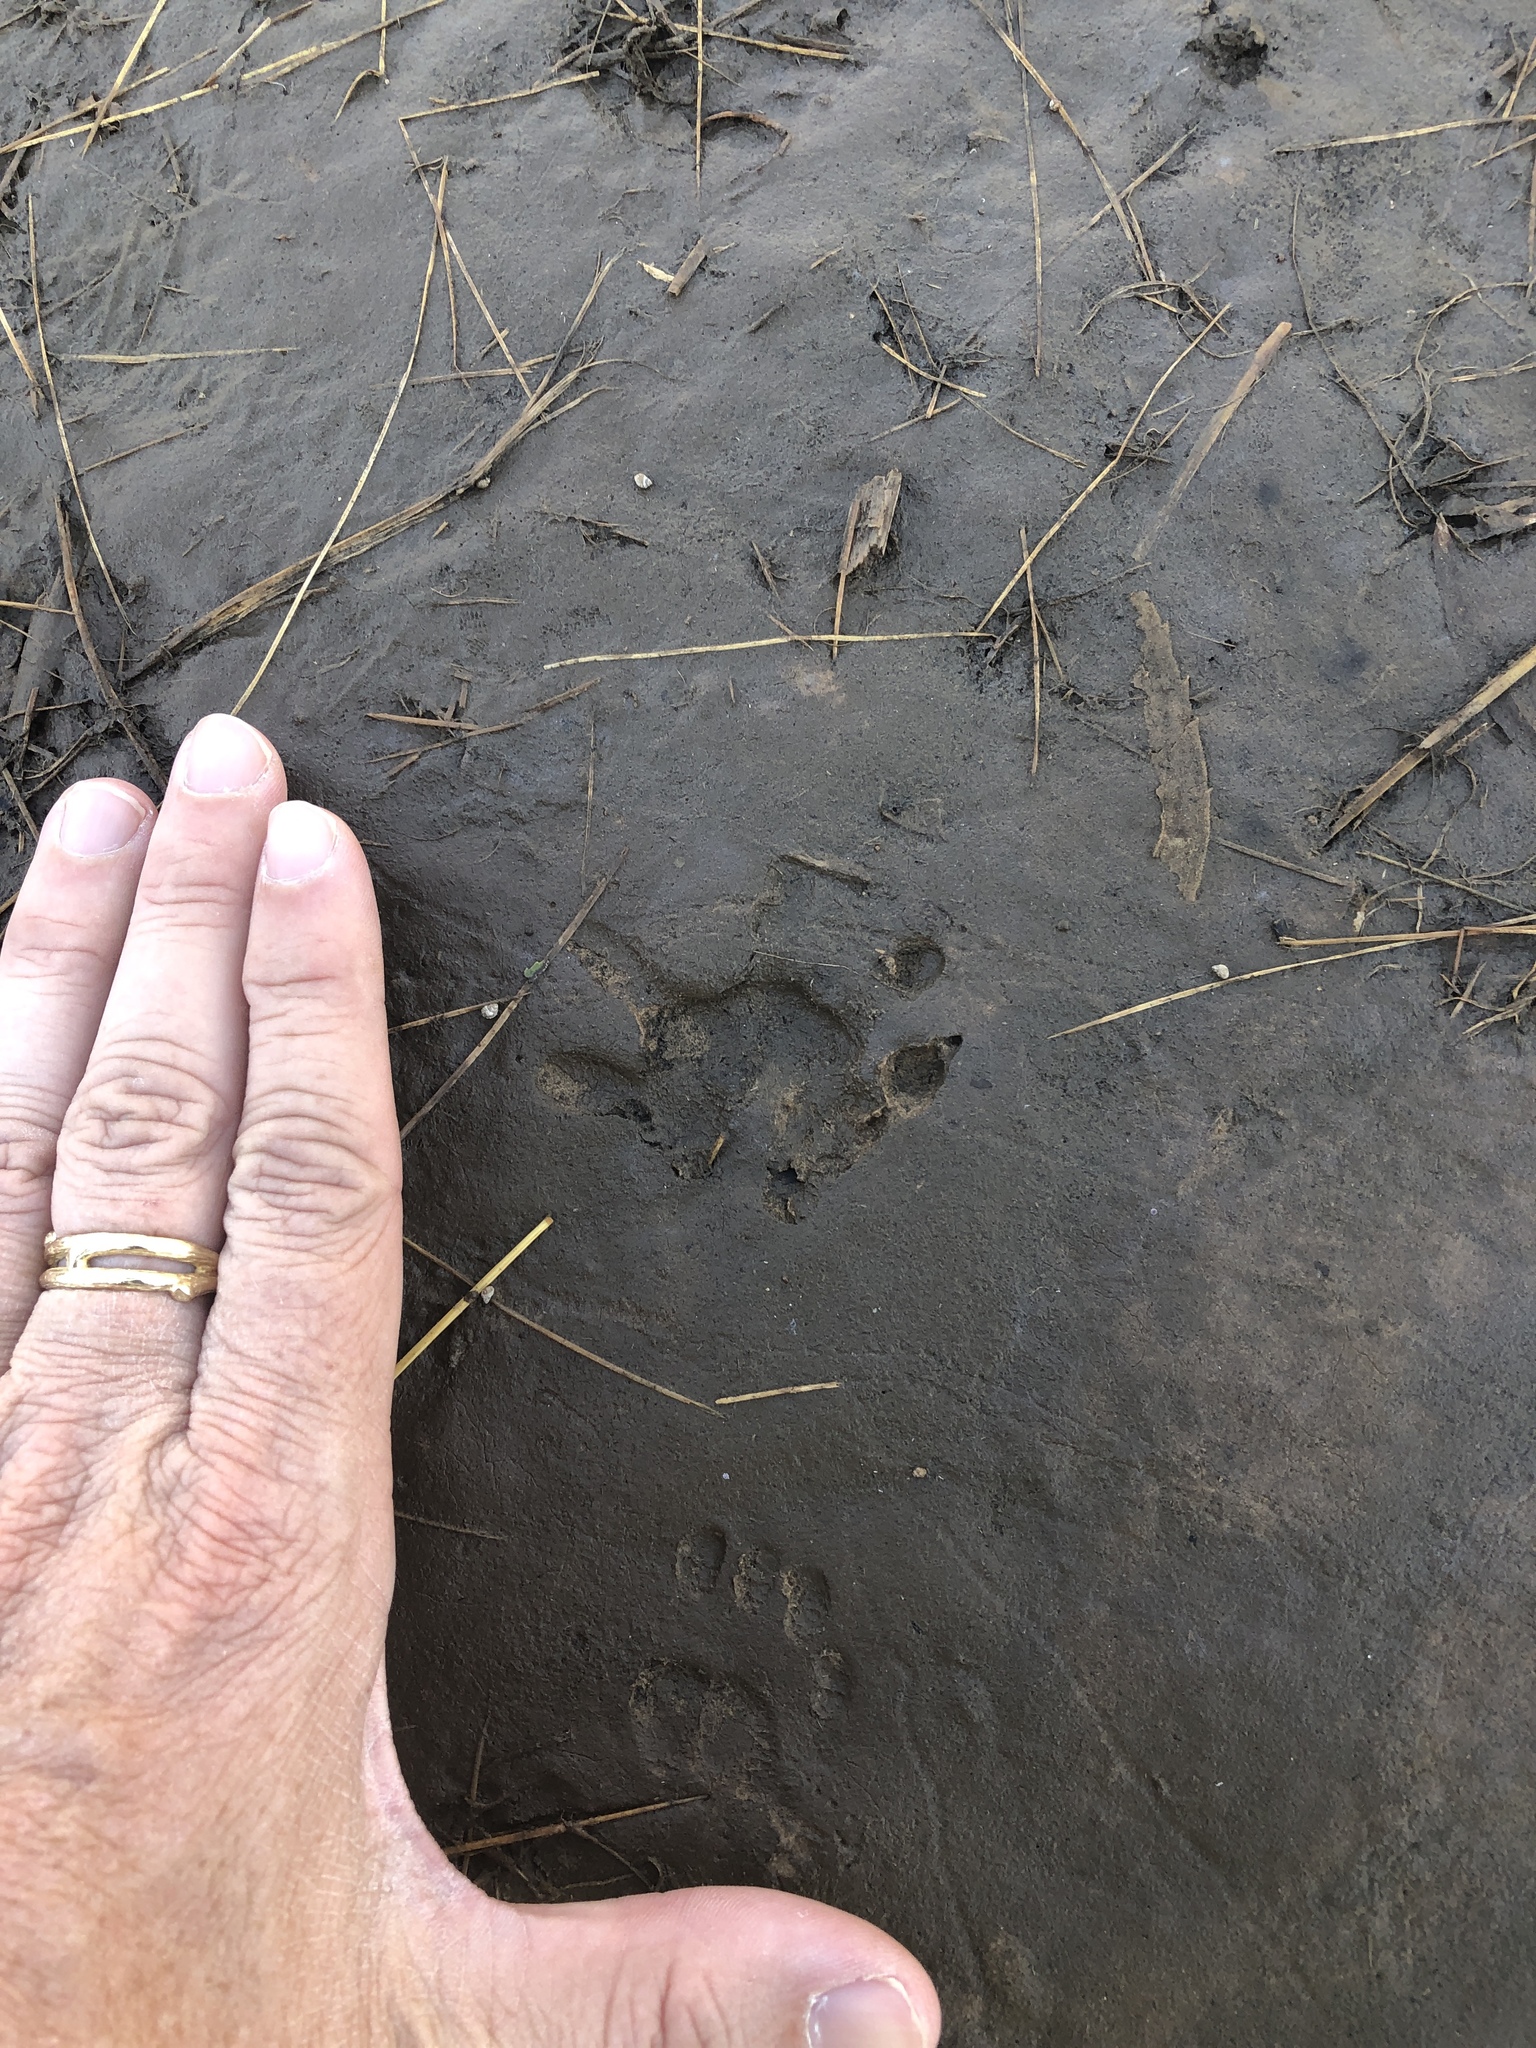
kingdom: Animalia
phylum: Chordata
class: Mammalia
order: Didelphimorphia
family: Didelphidae
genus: Didelphis
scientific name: Didelphis virginiana
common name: Virginia opossum
